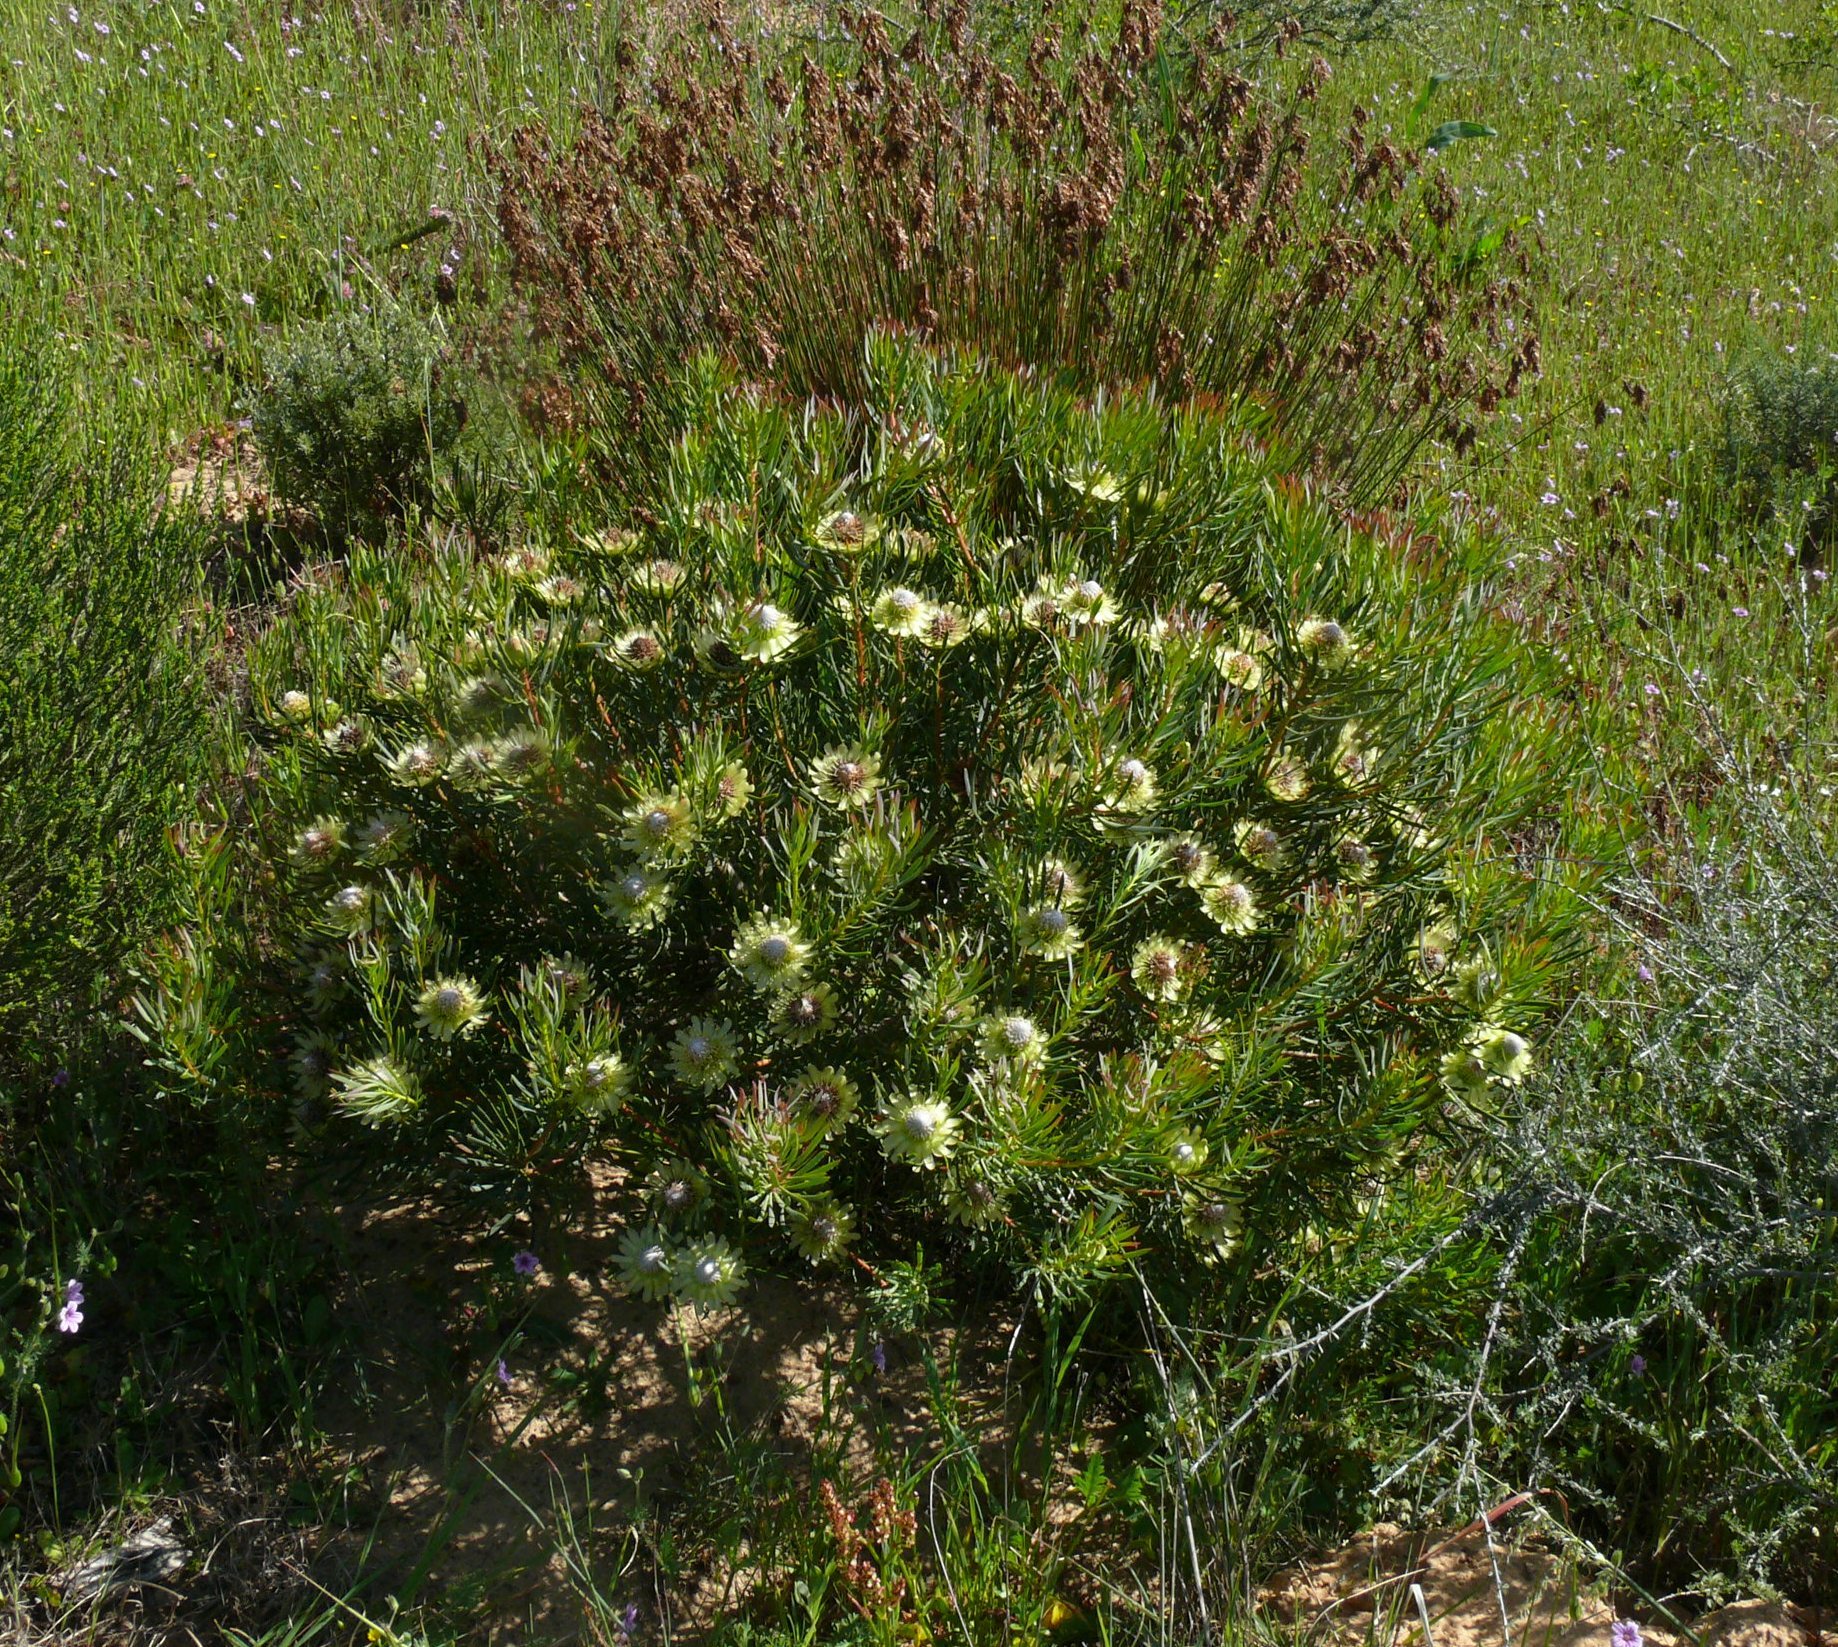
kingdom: Plantae
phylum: Tracheophyta
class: Magnoliopsida
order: Proteales
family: Proteaceae
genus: Protea
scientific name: Protea scolymocephala
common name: Thistle sugarbush
